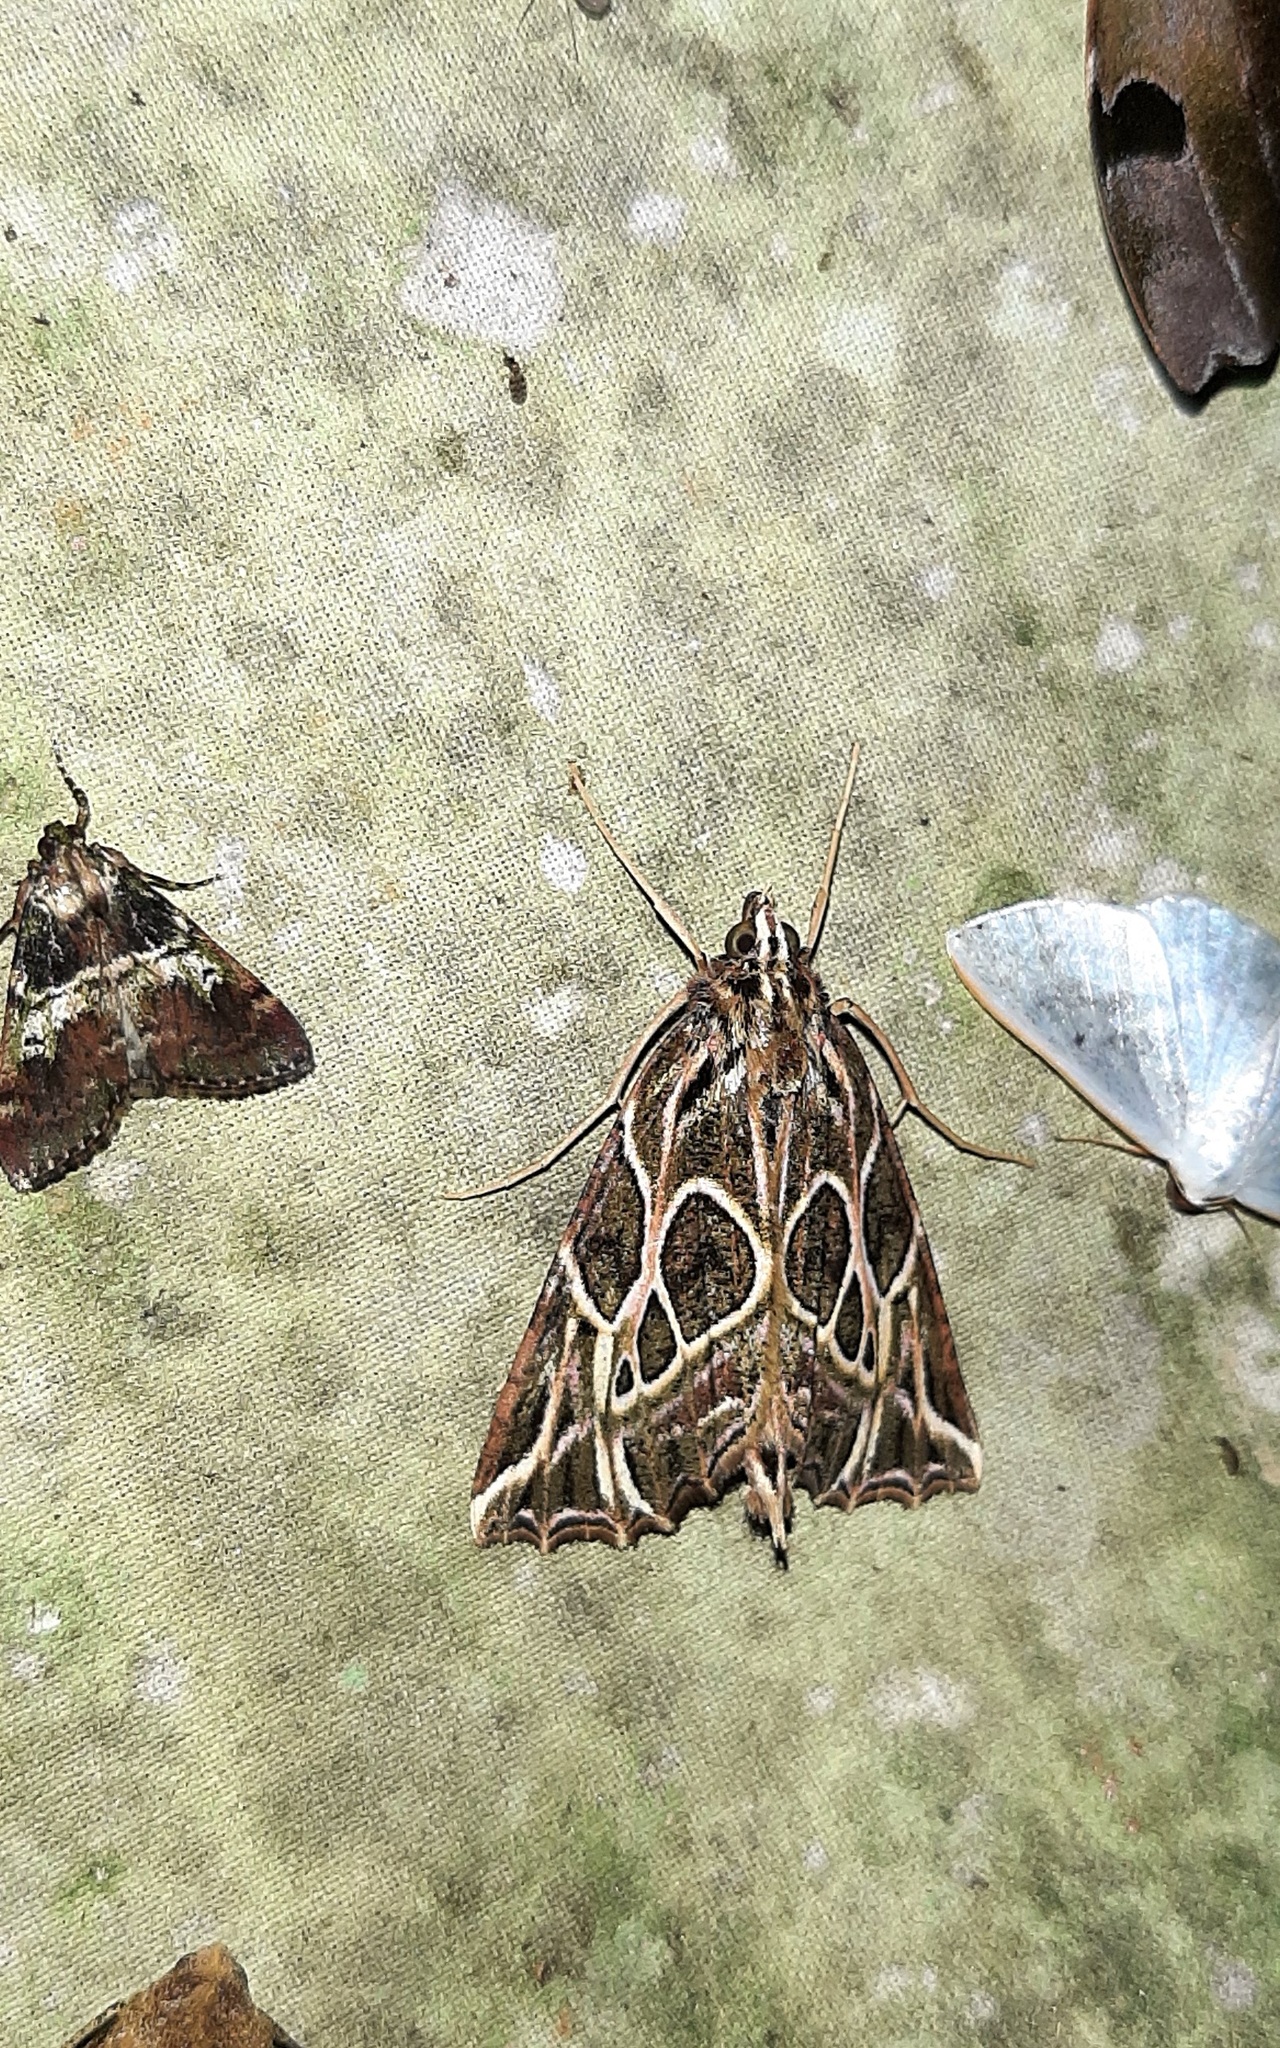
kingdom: Animalia
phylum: Arthropoda
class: Insecta
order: Lepidoptera
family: Geometridae
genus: Charca
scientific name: Charca
